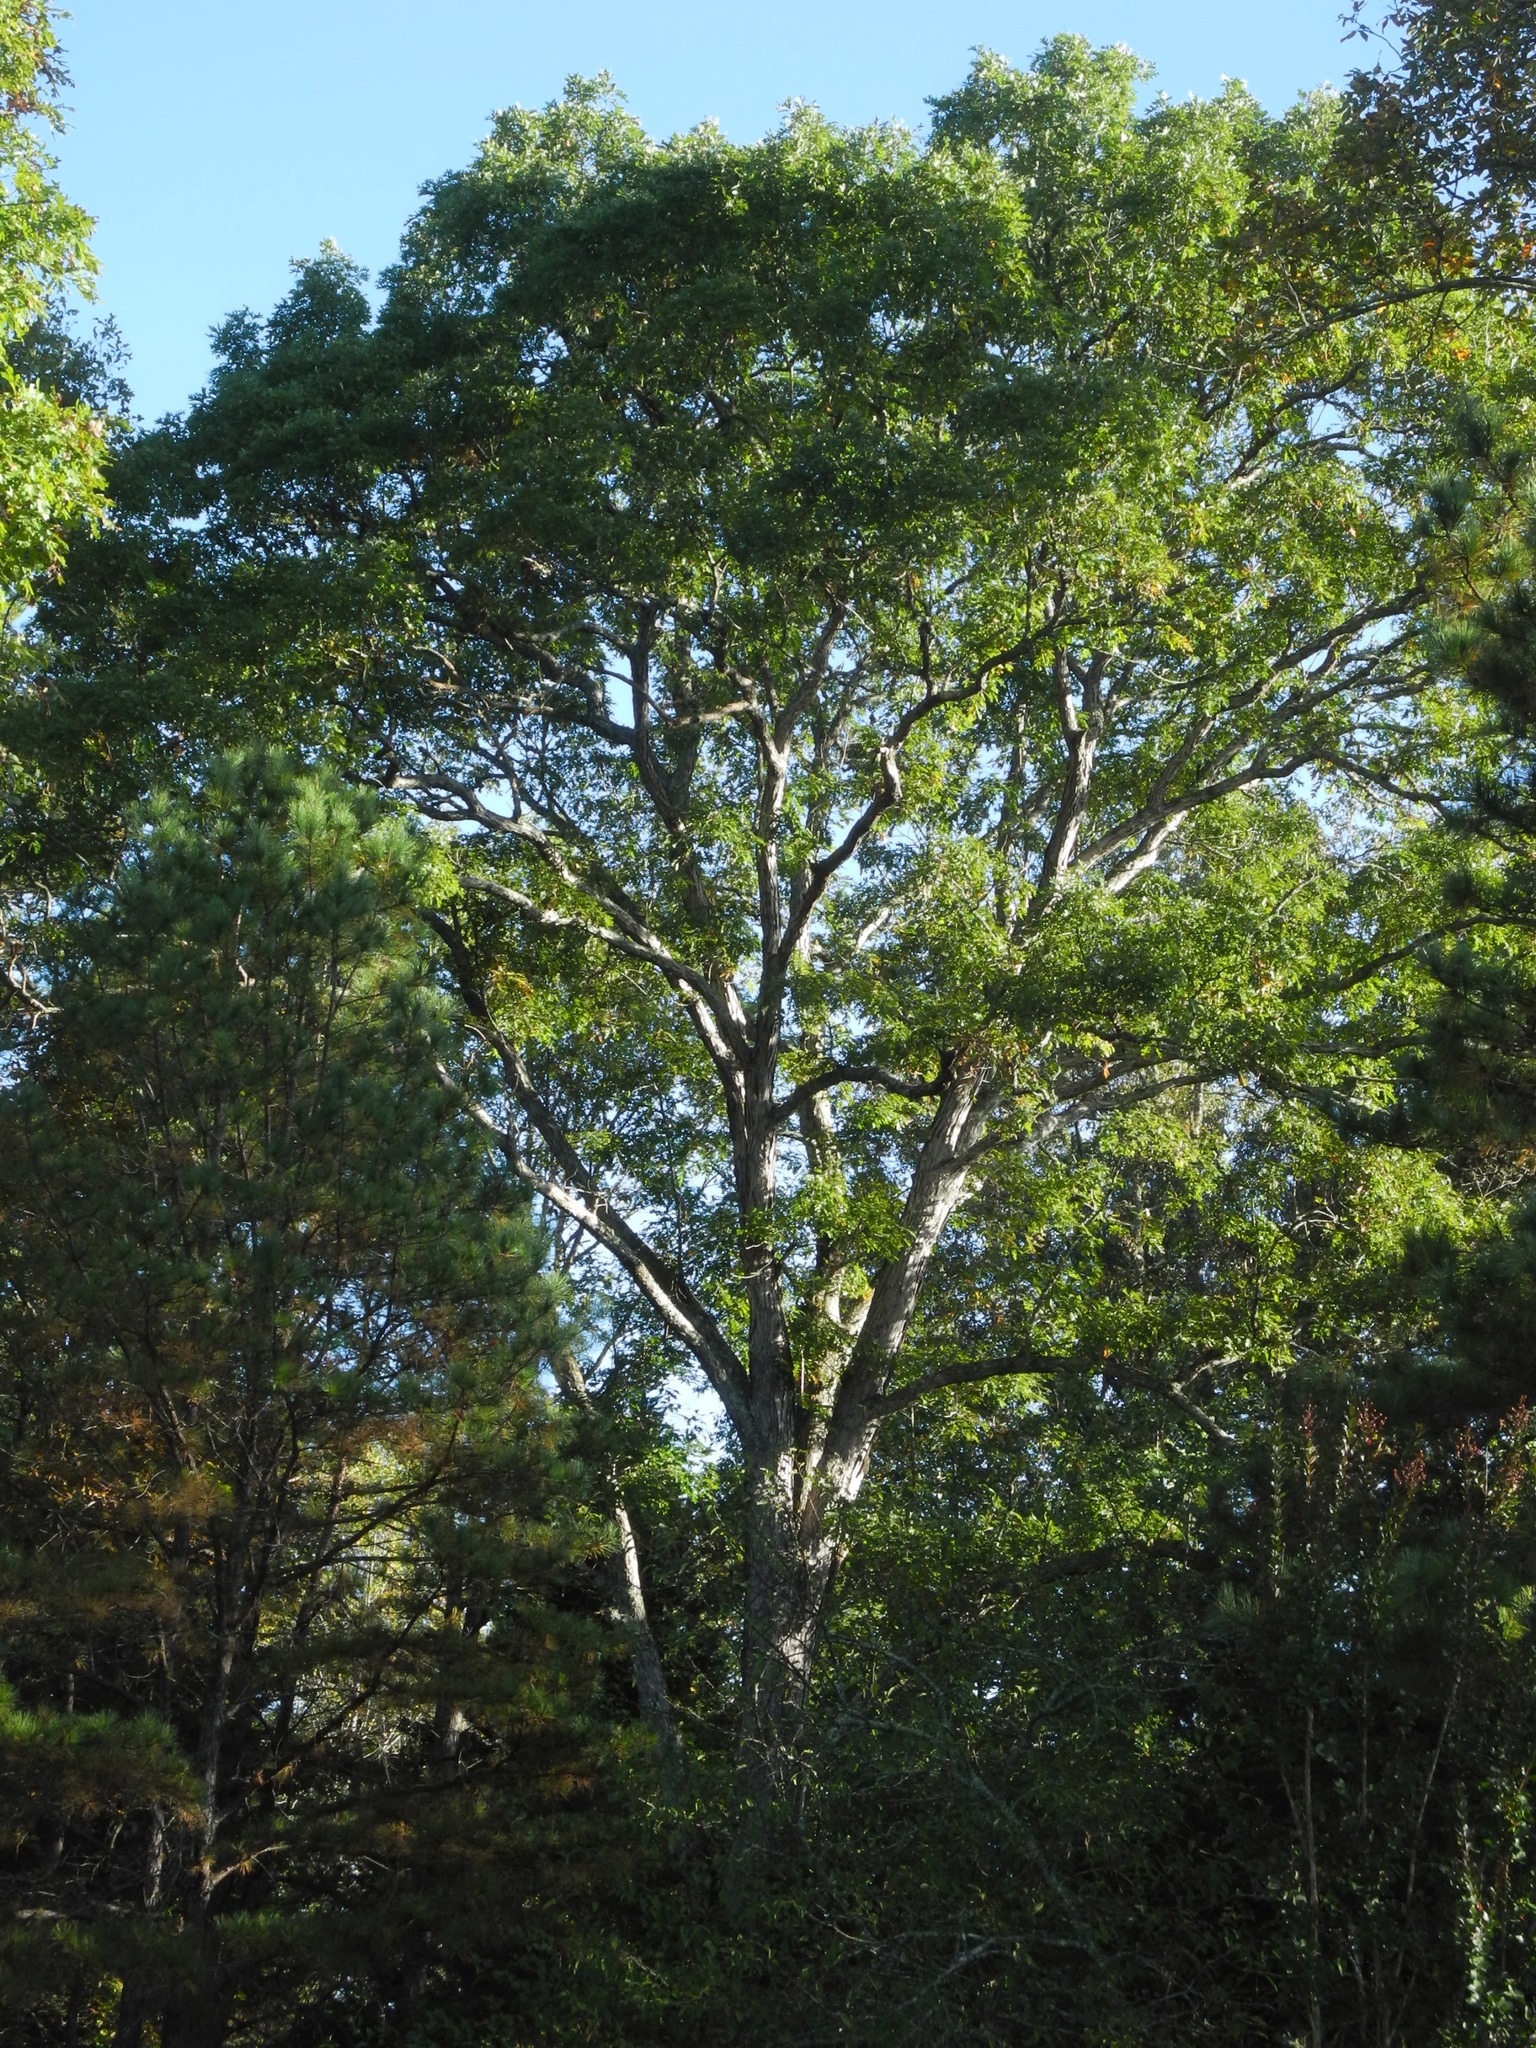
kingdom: Plantae
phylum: Tracheophyta
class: Magnoliopsida
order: Fagales
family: Fagaceae
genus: Quercus
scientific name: Quercus alba
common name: White oak
